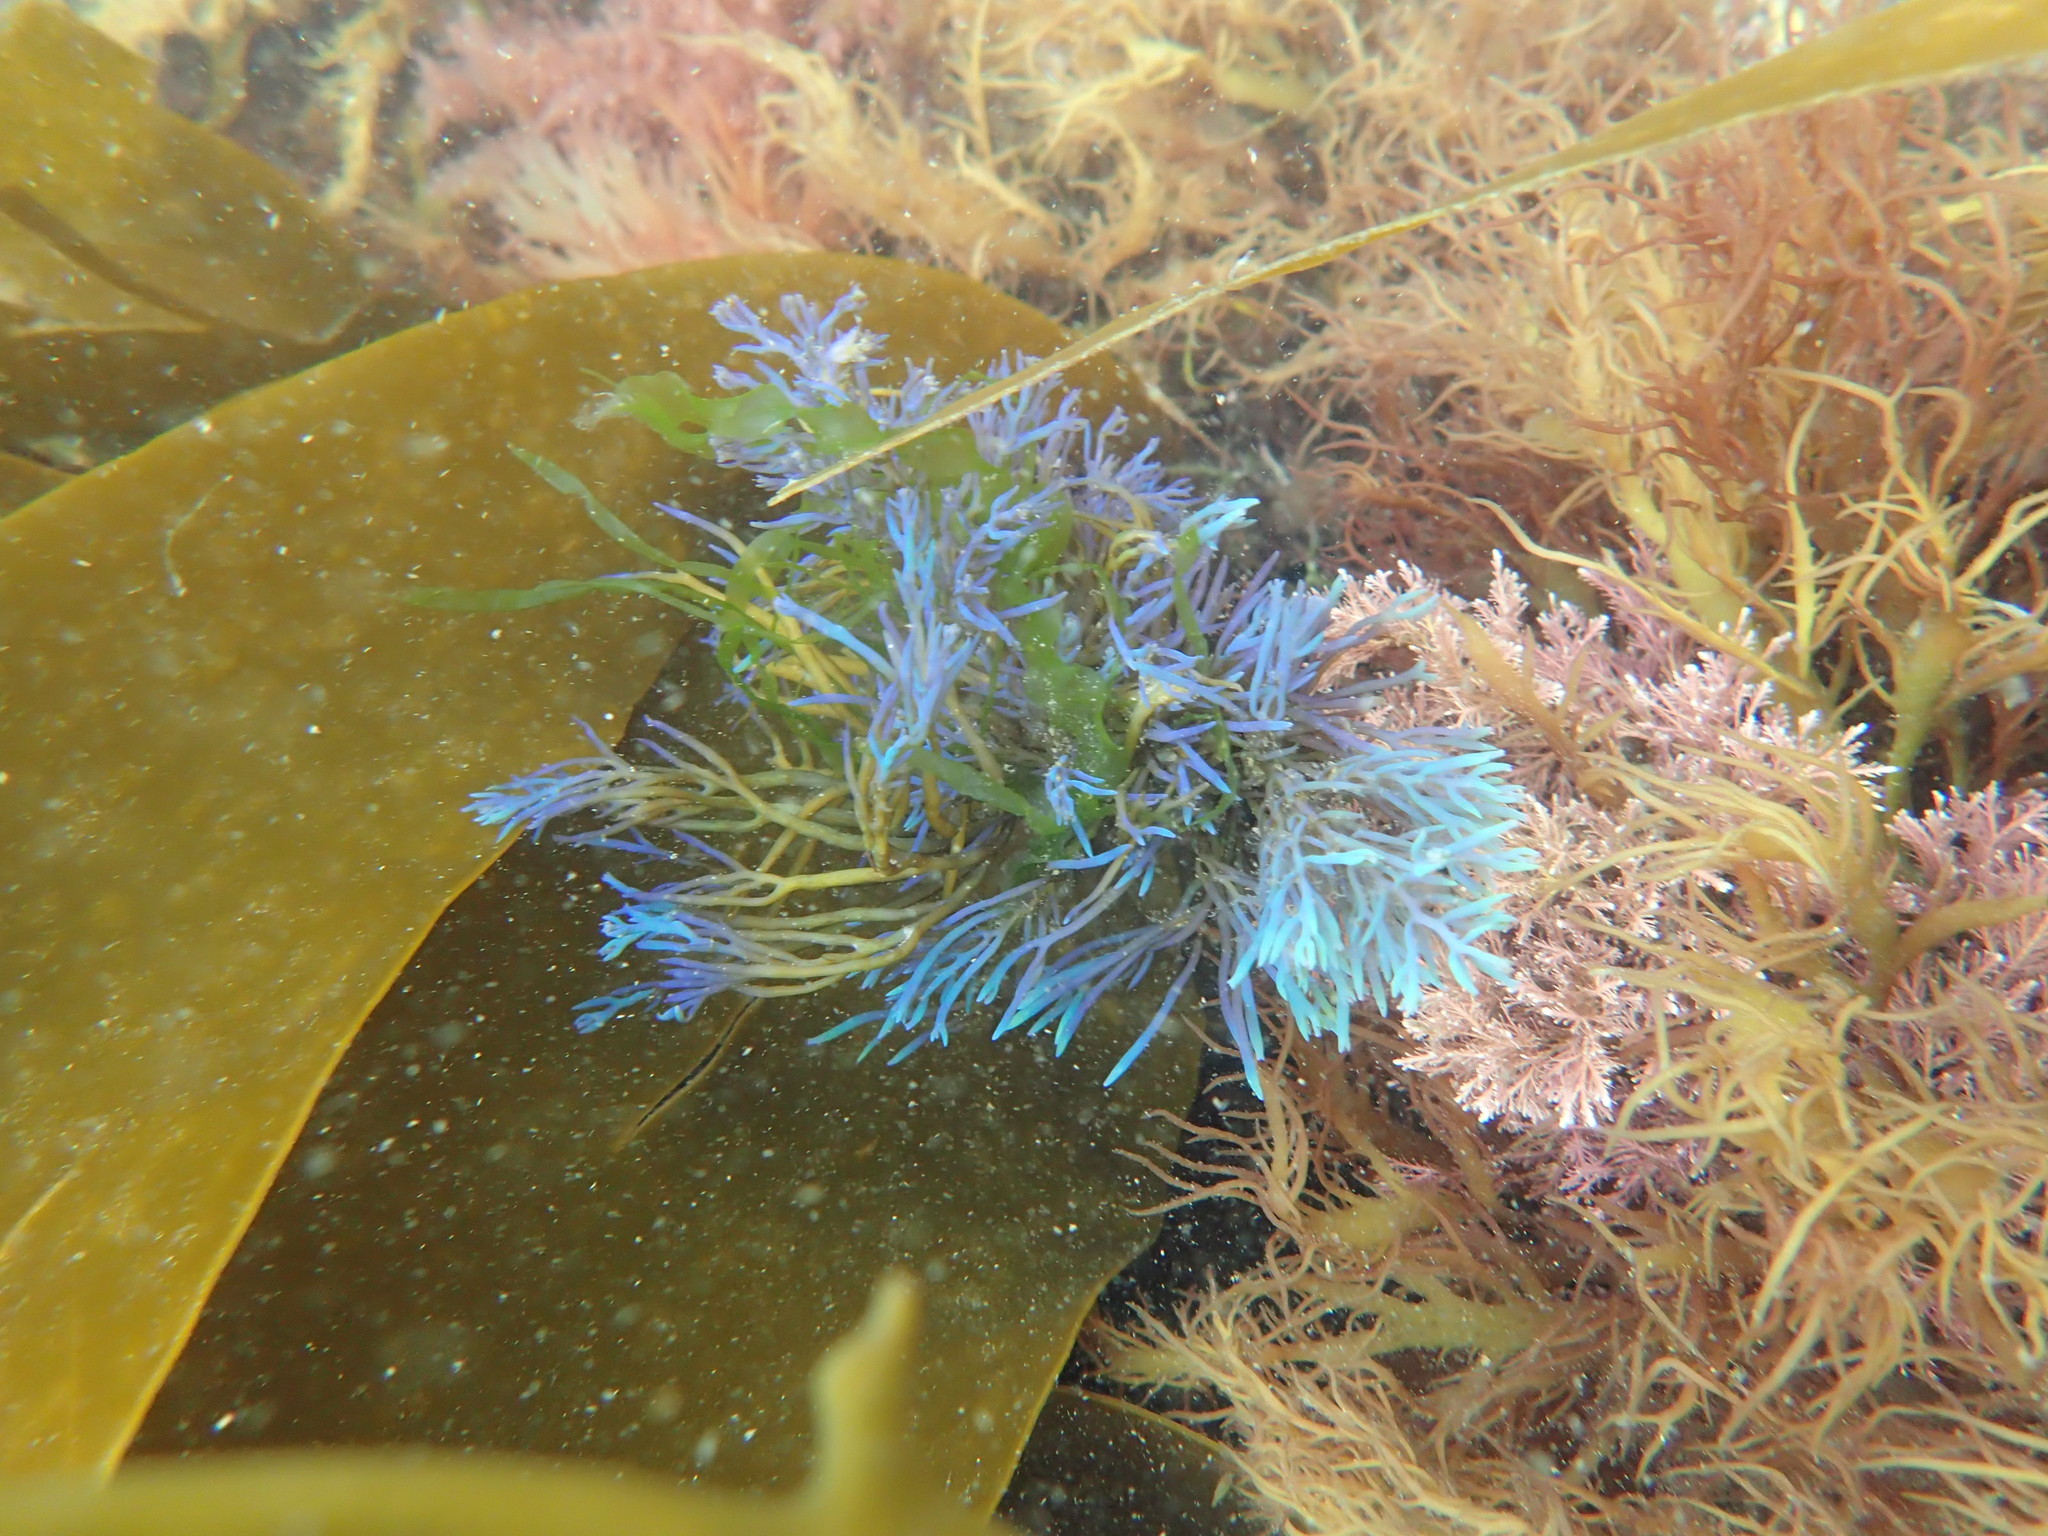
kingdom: Chromista
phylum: Ochrophyta
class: Phaeophyceae
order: Fucales
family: Sargassaceae
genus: Cystoseira
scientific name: Cystoseira Ericaria selaginoides
